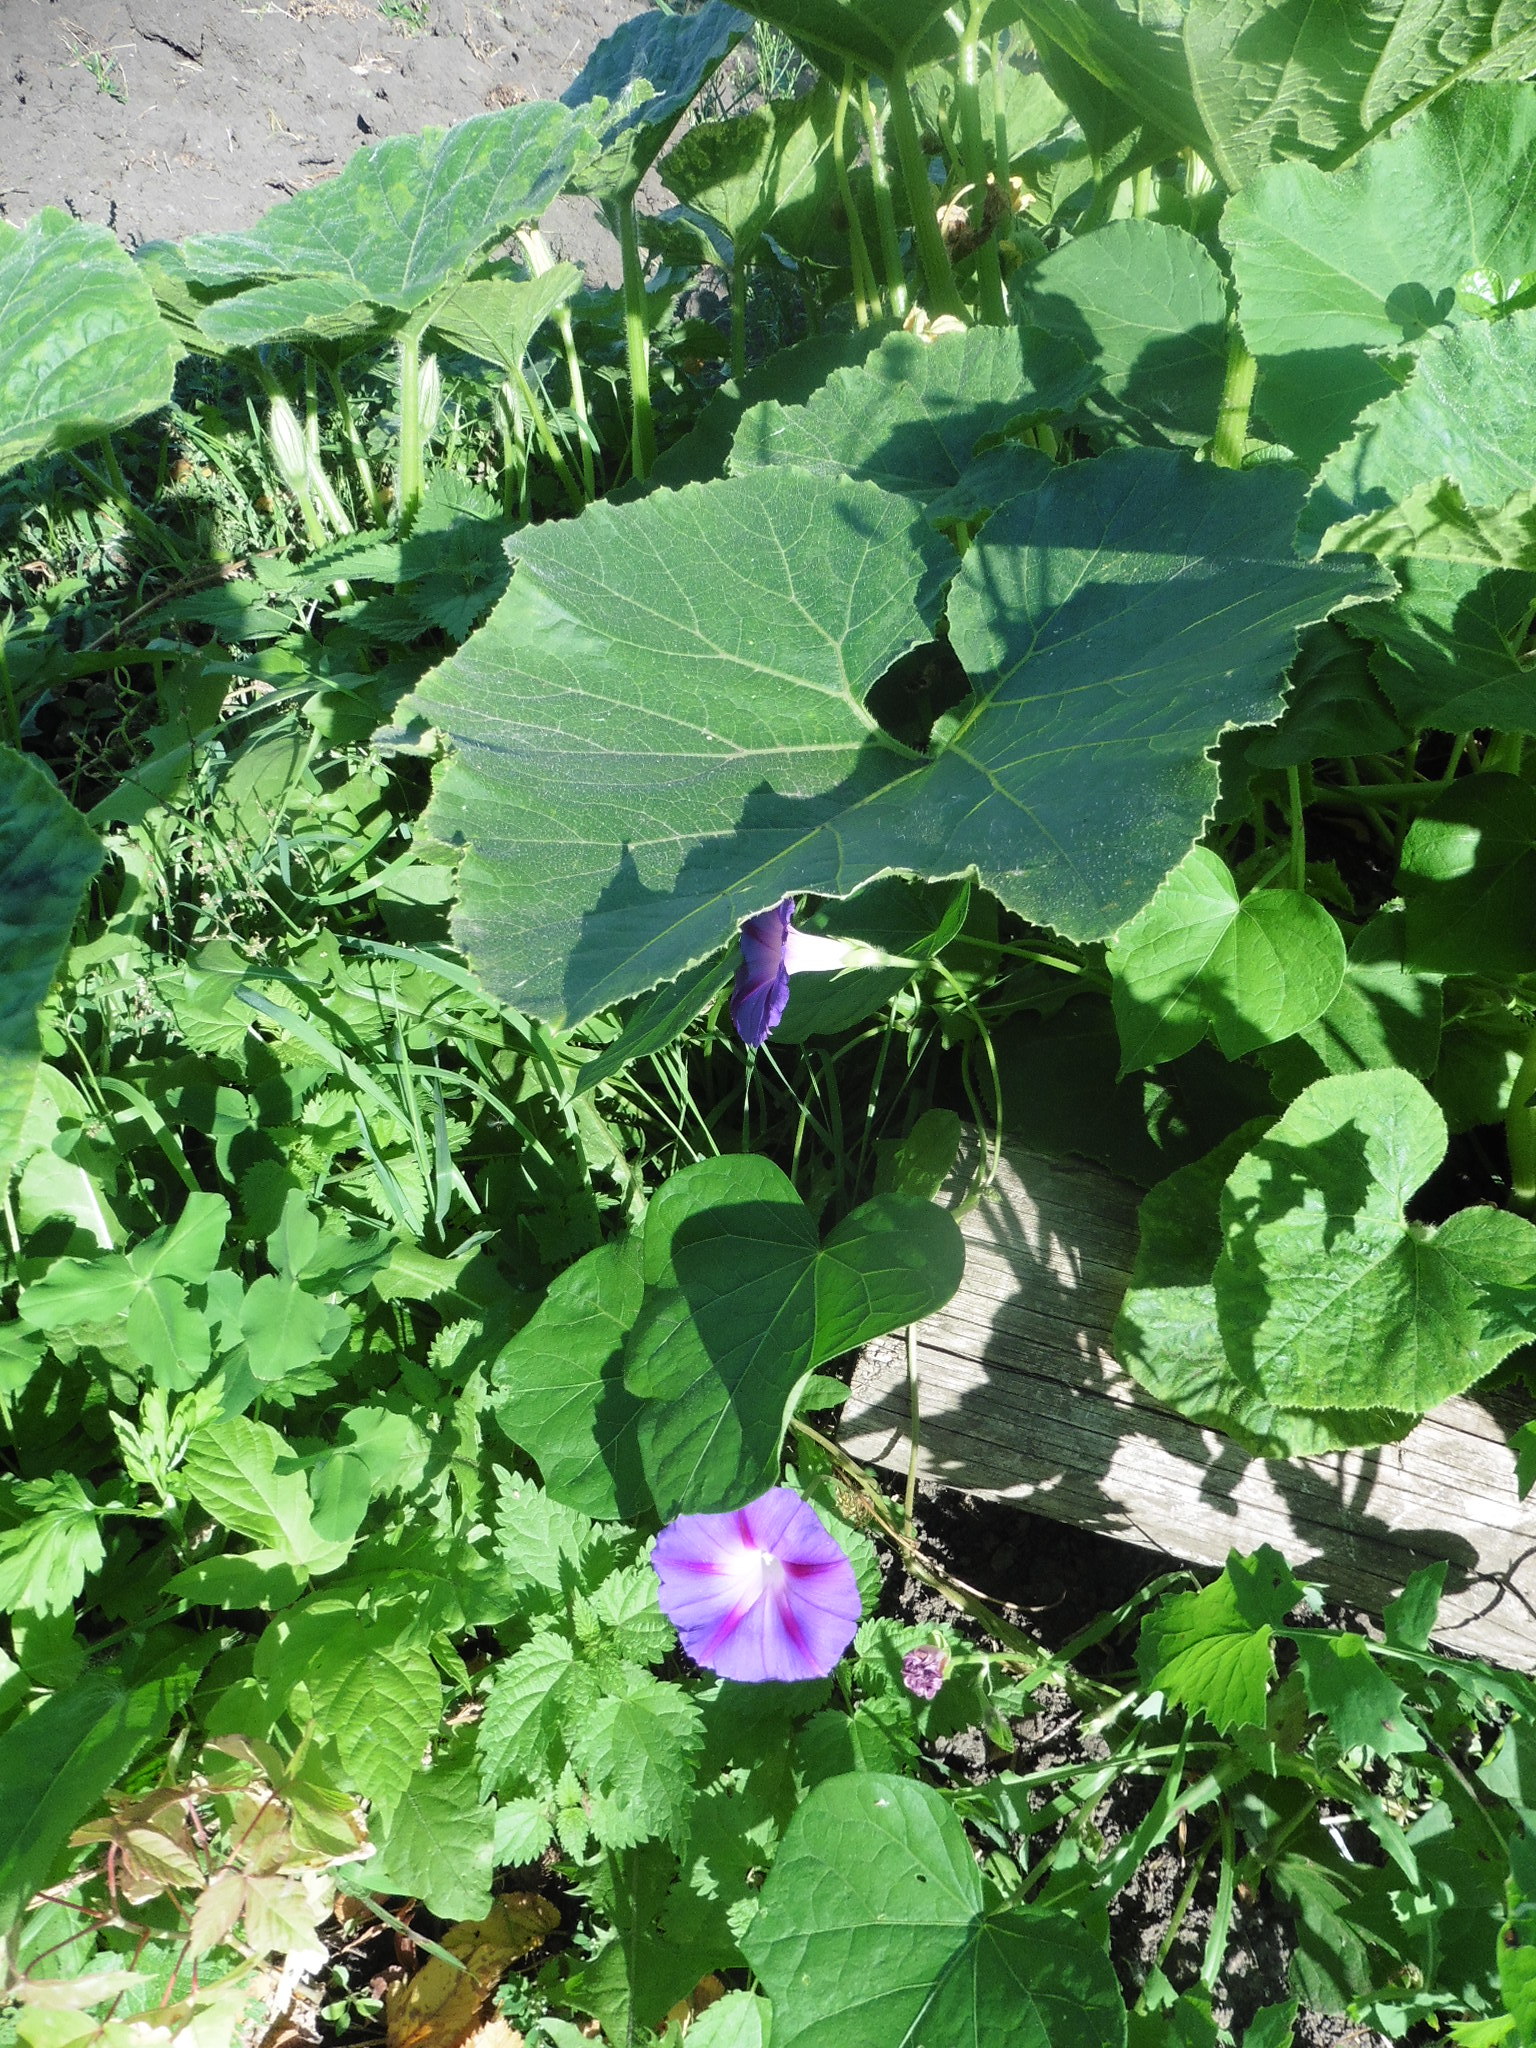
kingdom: Plantae
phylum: Tracheophyta
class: Magnoliopsida
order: Solanales
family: Convolvulaceae
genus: Ipomoea
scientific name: Ipomoea purpurea
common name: Common morning-glory
